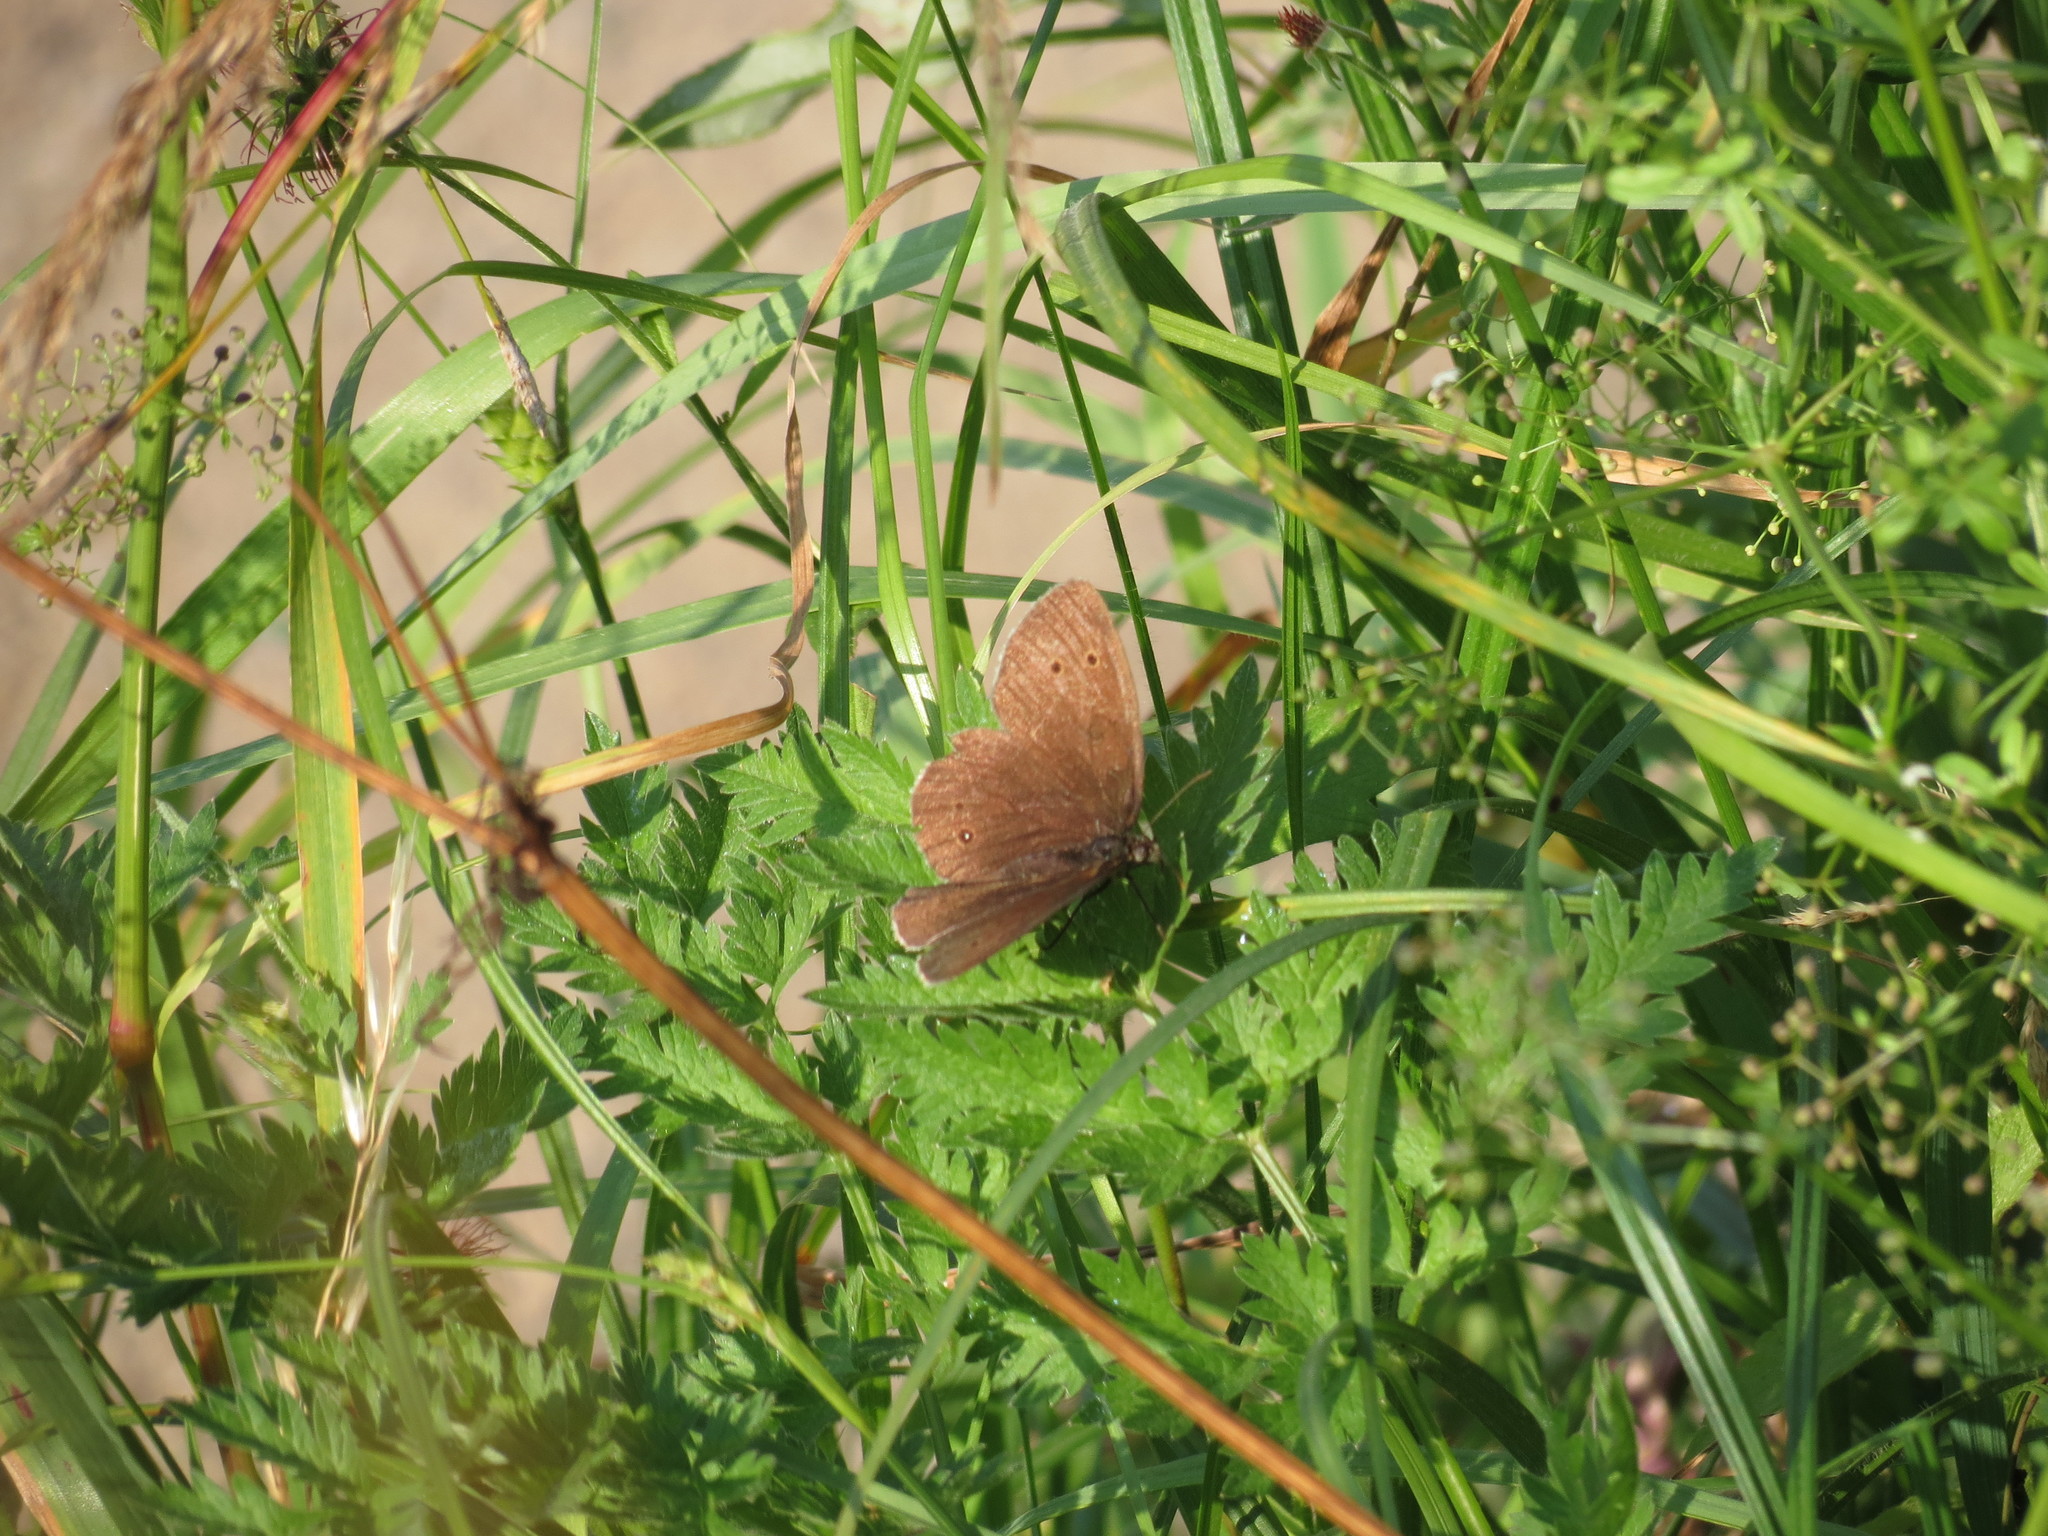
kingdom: Animalia
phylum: Arthropoda
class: Insecta
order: Lepidoptera
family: Nymphalidae
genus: Aphantopus
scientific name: Aphantopus hyperantus
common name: Ringlet
